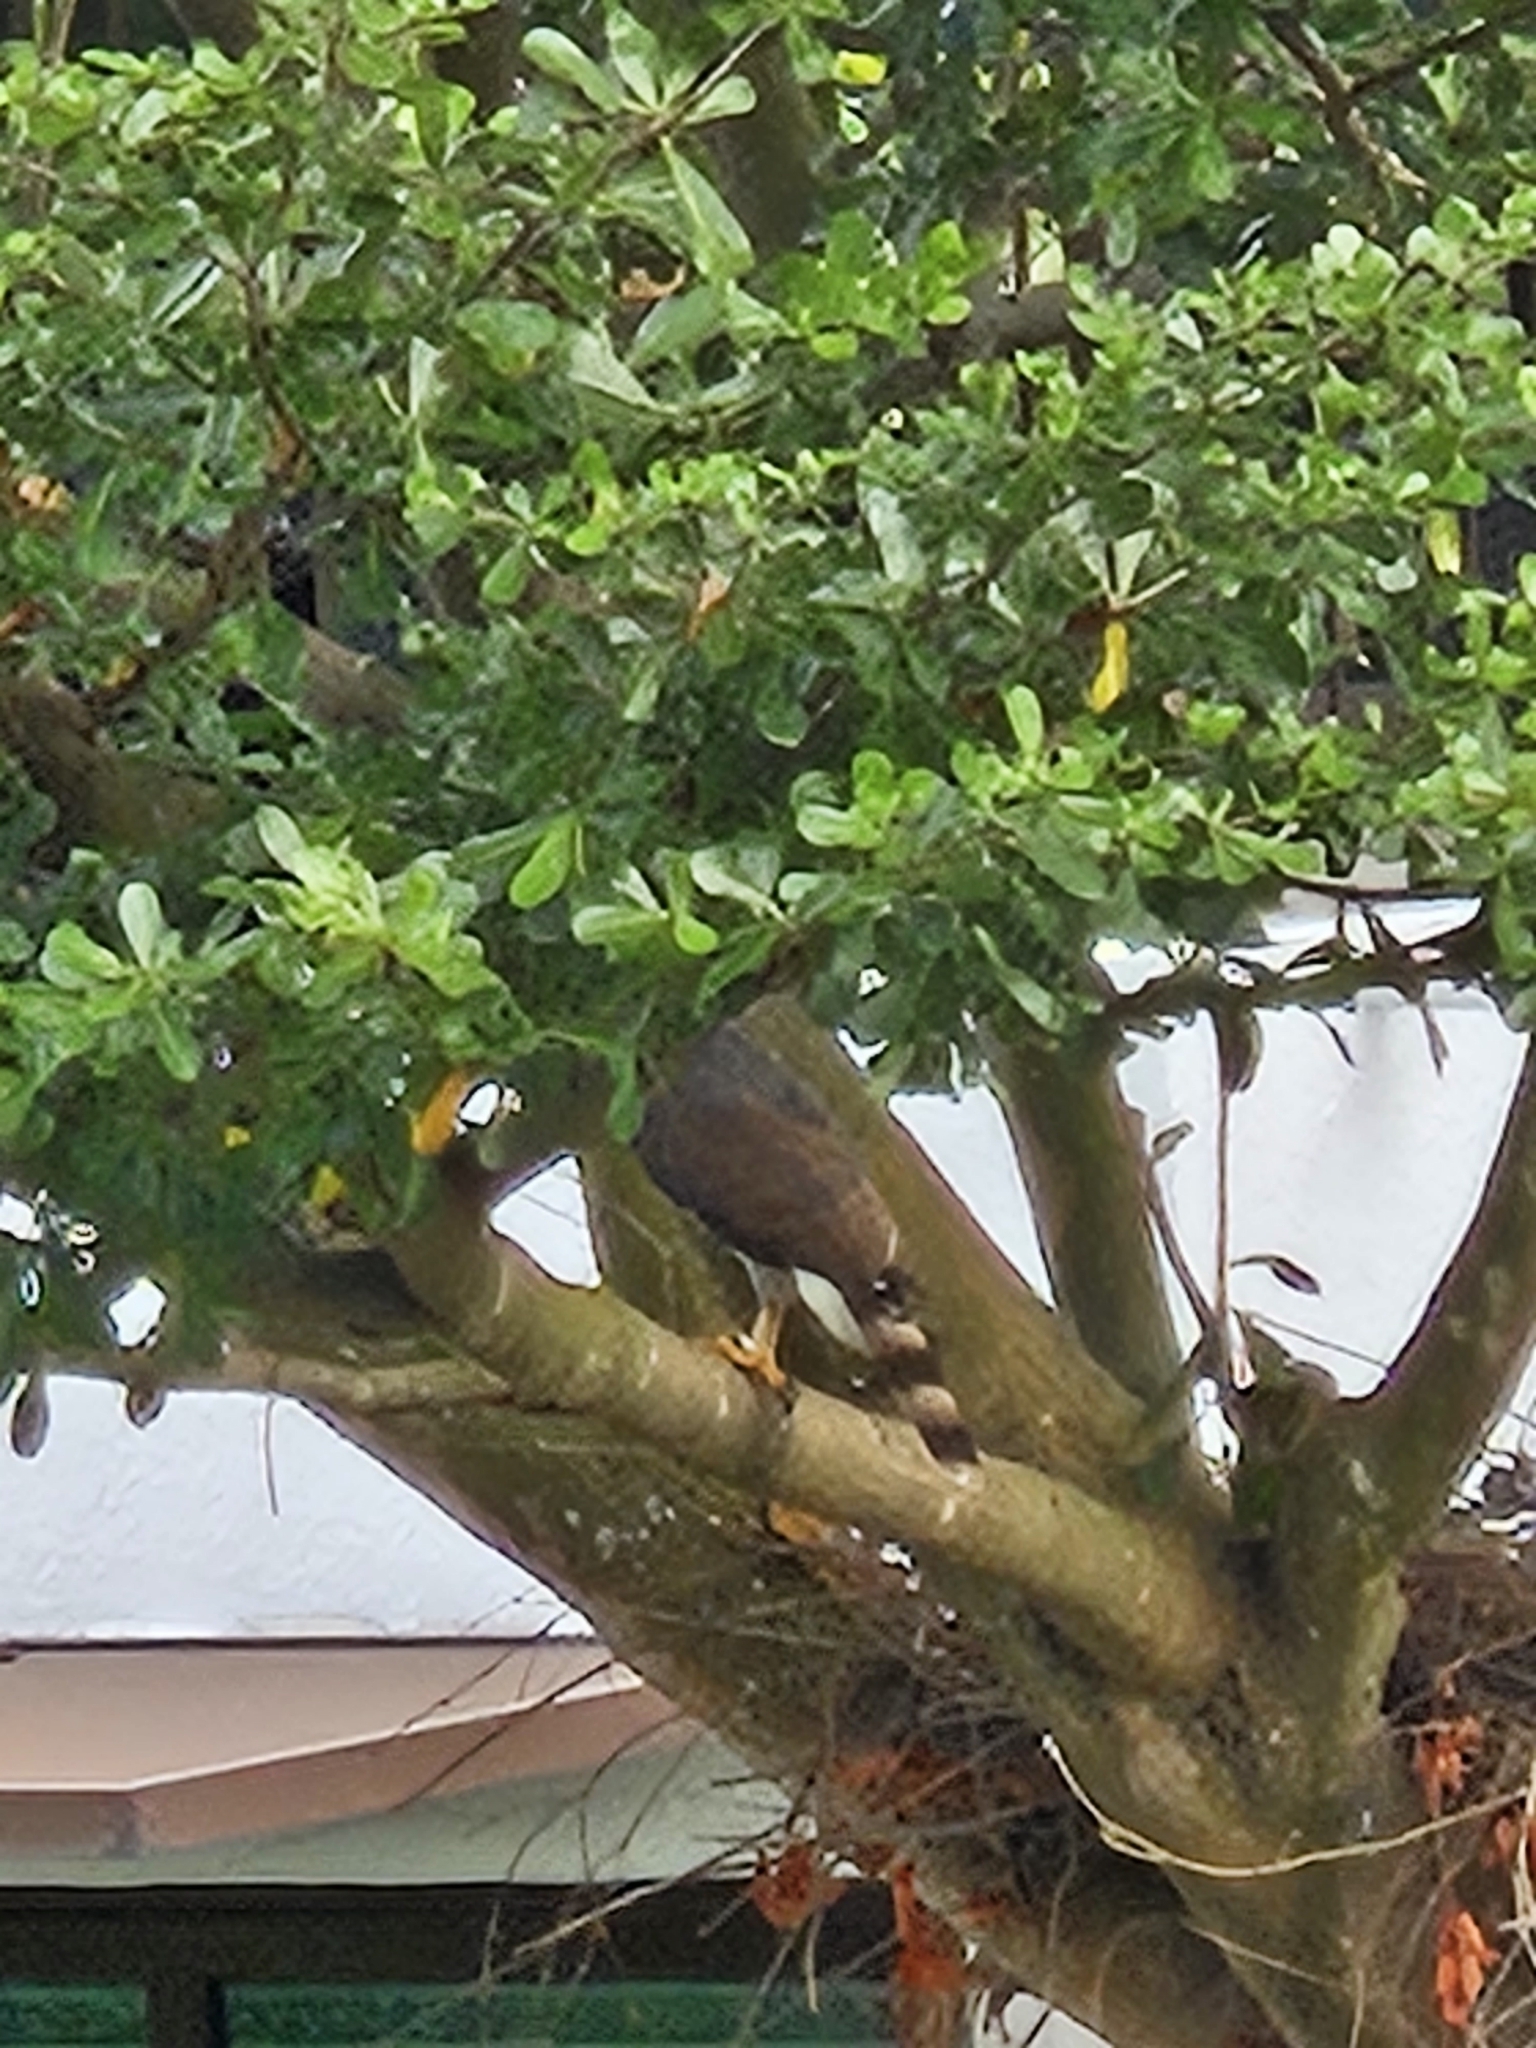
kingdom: Animalia
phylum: Chordata
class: Aves
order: Accipitriformes
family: Accipitridae
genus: Accipiter
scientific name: Accipiter trivirgatus
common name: Crested goshawk
